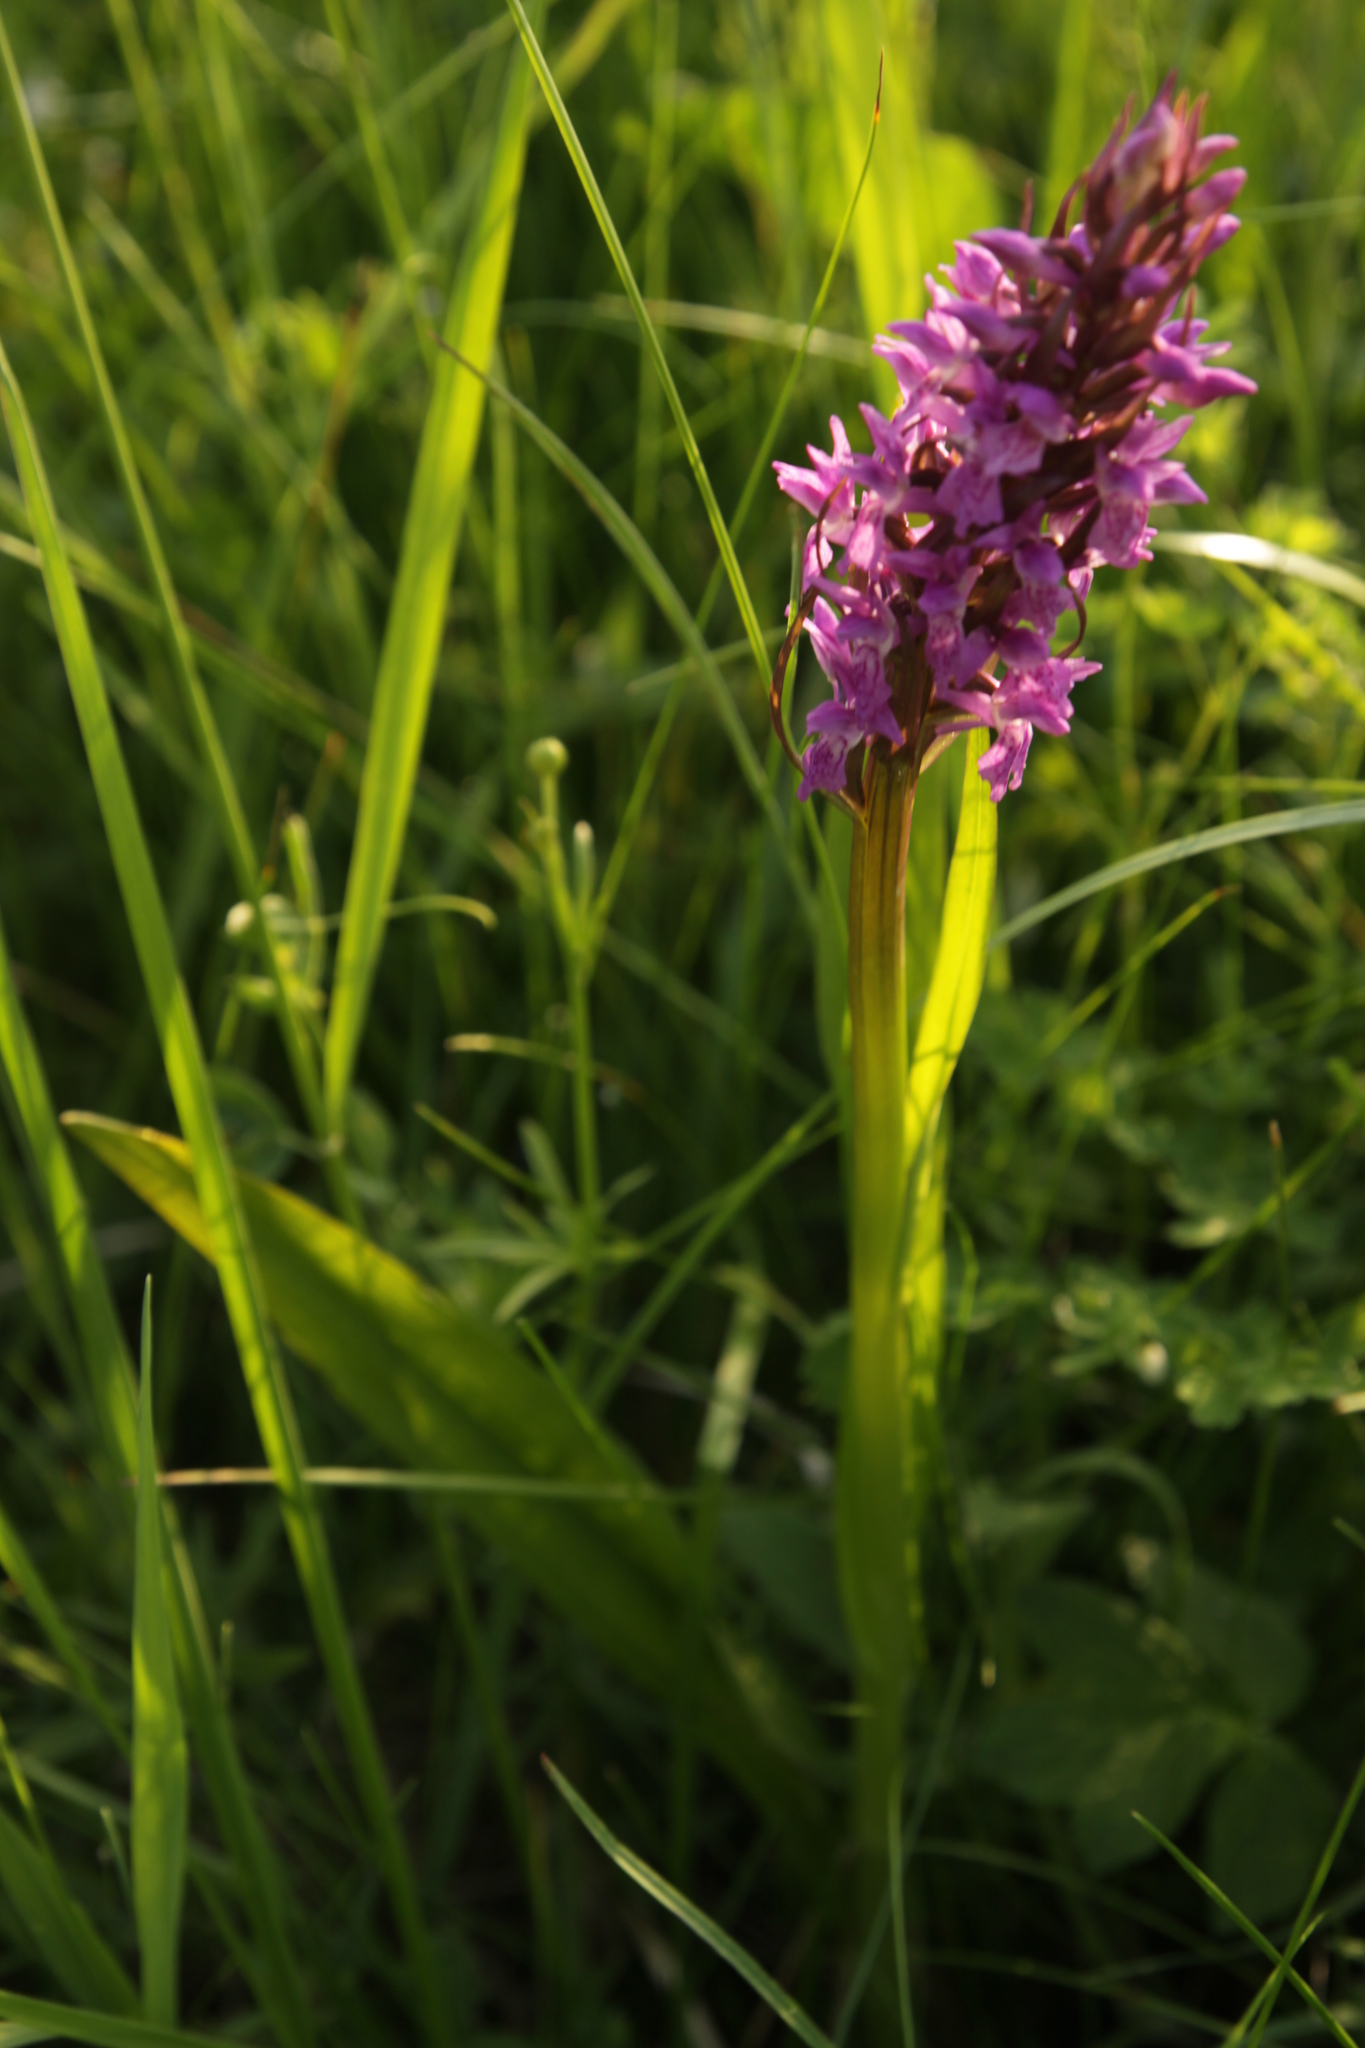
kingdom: Plantae
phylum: Tracheophyta
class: Liliopsida
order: Asparagales
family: Orchidaceae
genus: Dactylorhiza
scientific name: Dactylorhiza incarnata
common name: Early marsh-orchid
